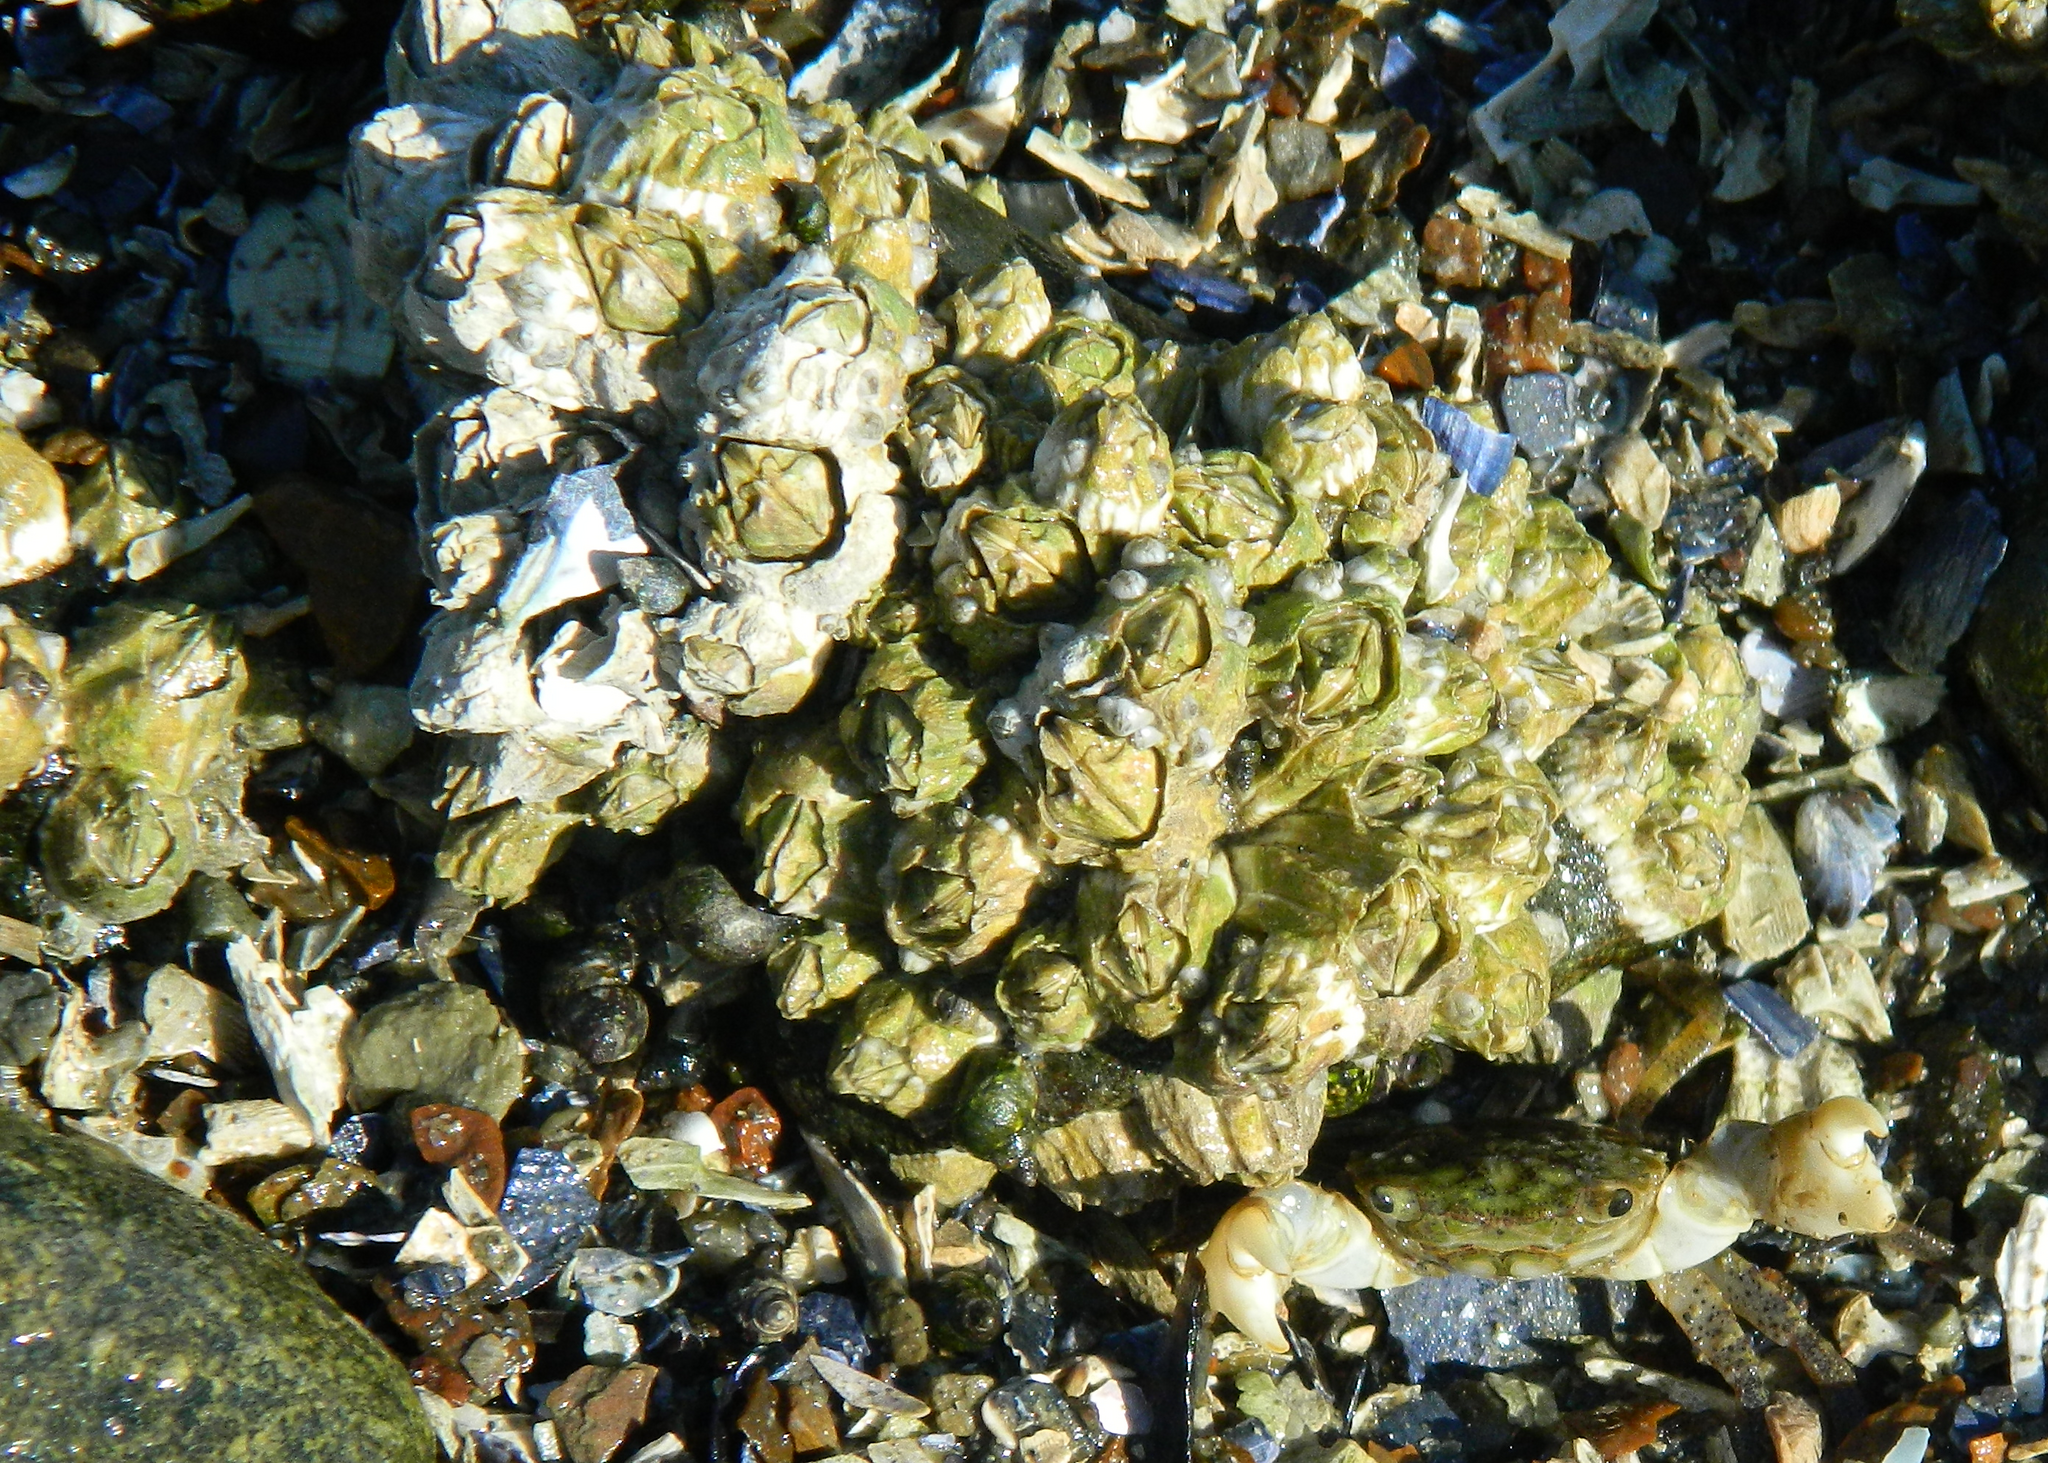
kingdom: Animalia
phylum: Arthropoda
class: Maxillopoda
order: Sessilia
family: Balanidae
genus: Balanus
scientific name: Balanus glandula
